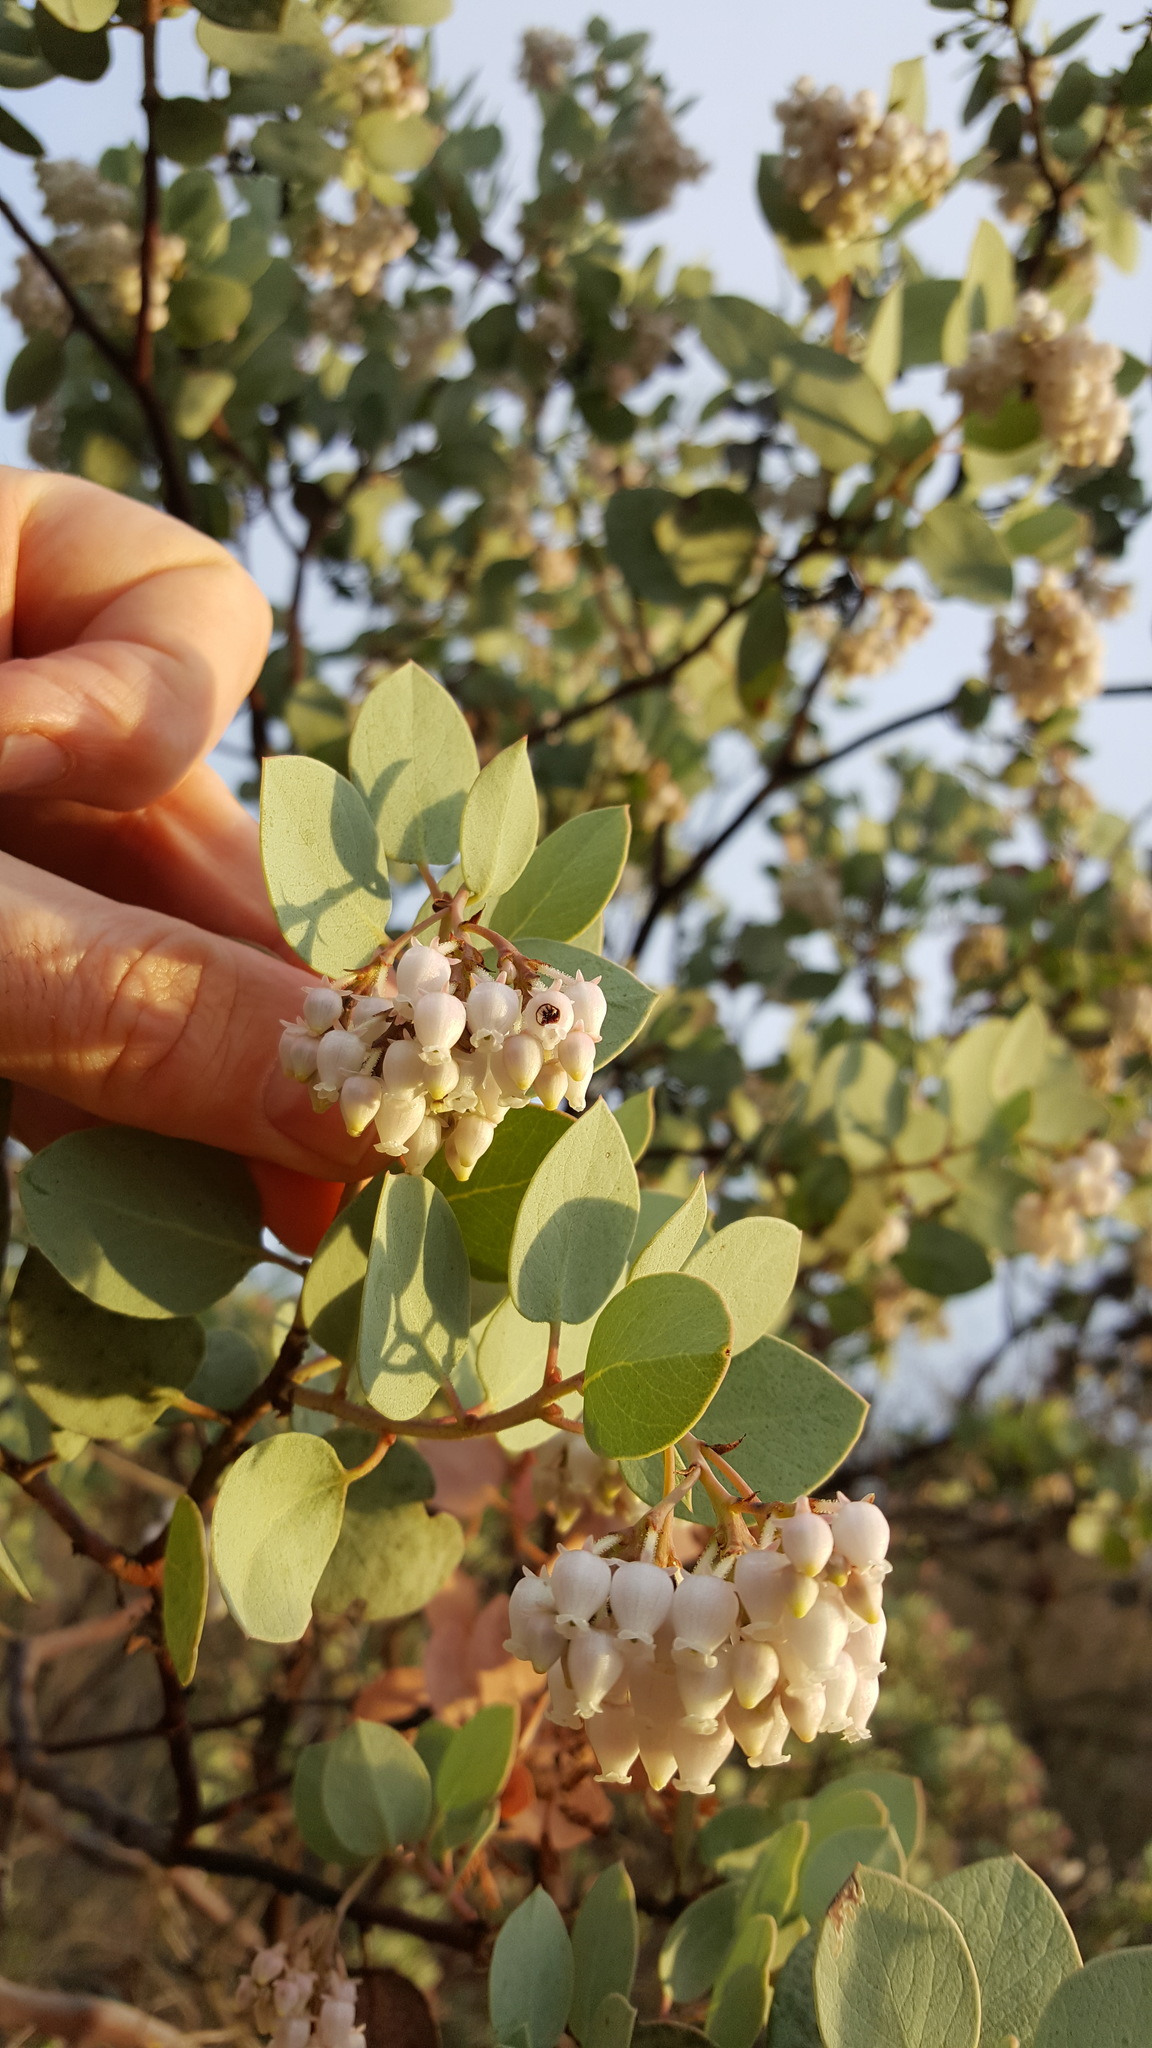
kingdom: Plantae
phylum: Tracheophyta
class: Magnoliopsida
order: Ericales
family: Ericaceae
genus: Arctostaphylos
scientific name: Arctostaphylos viscida
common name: White-leaf manzanita
